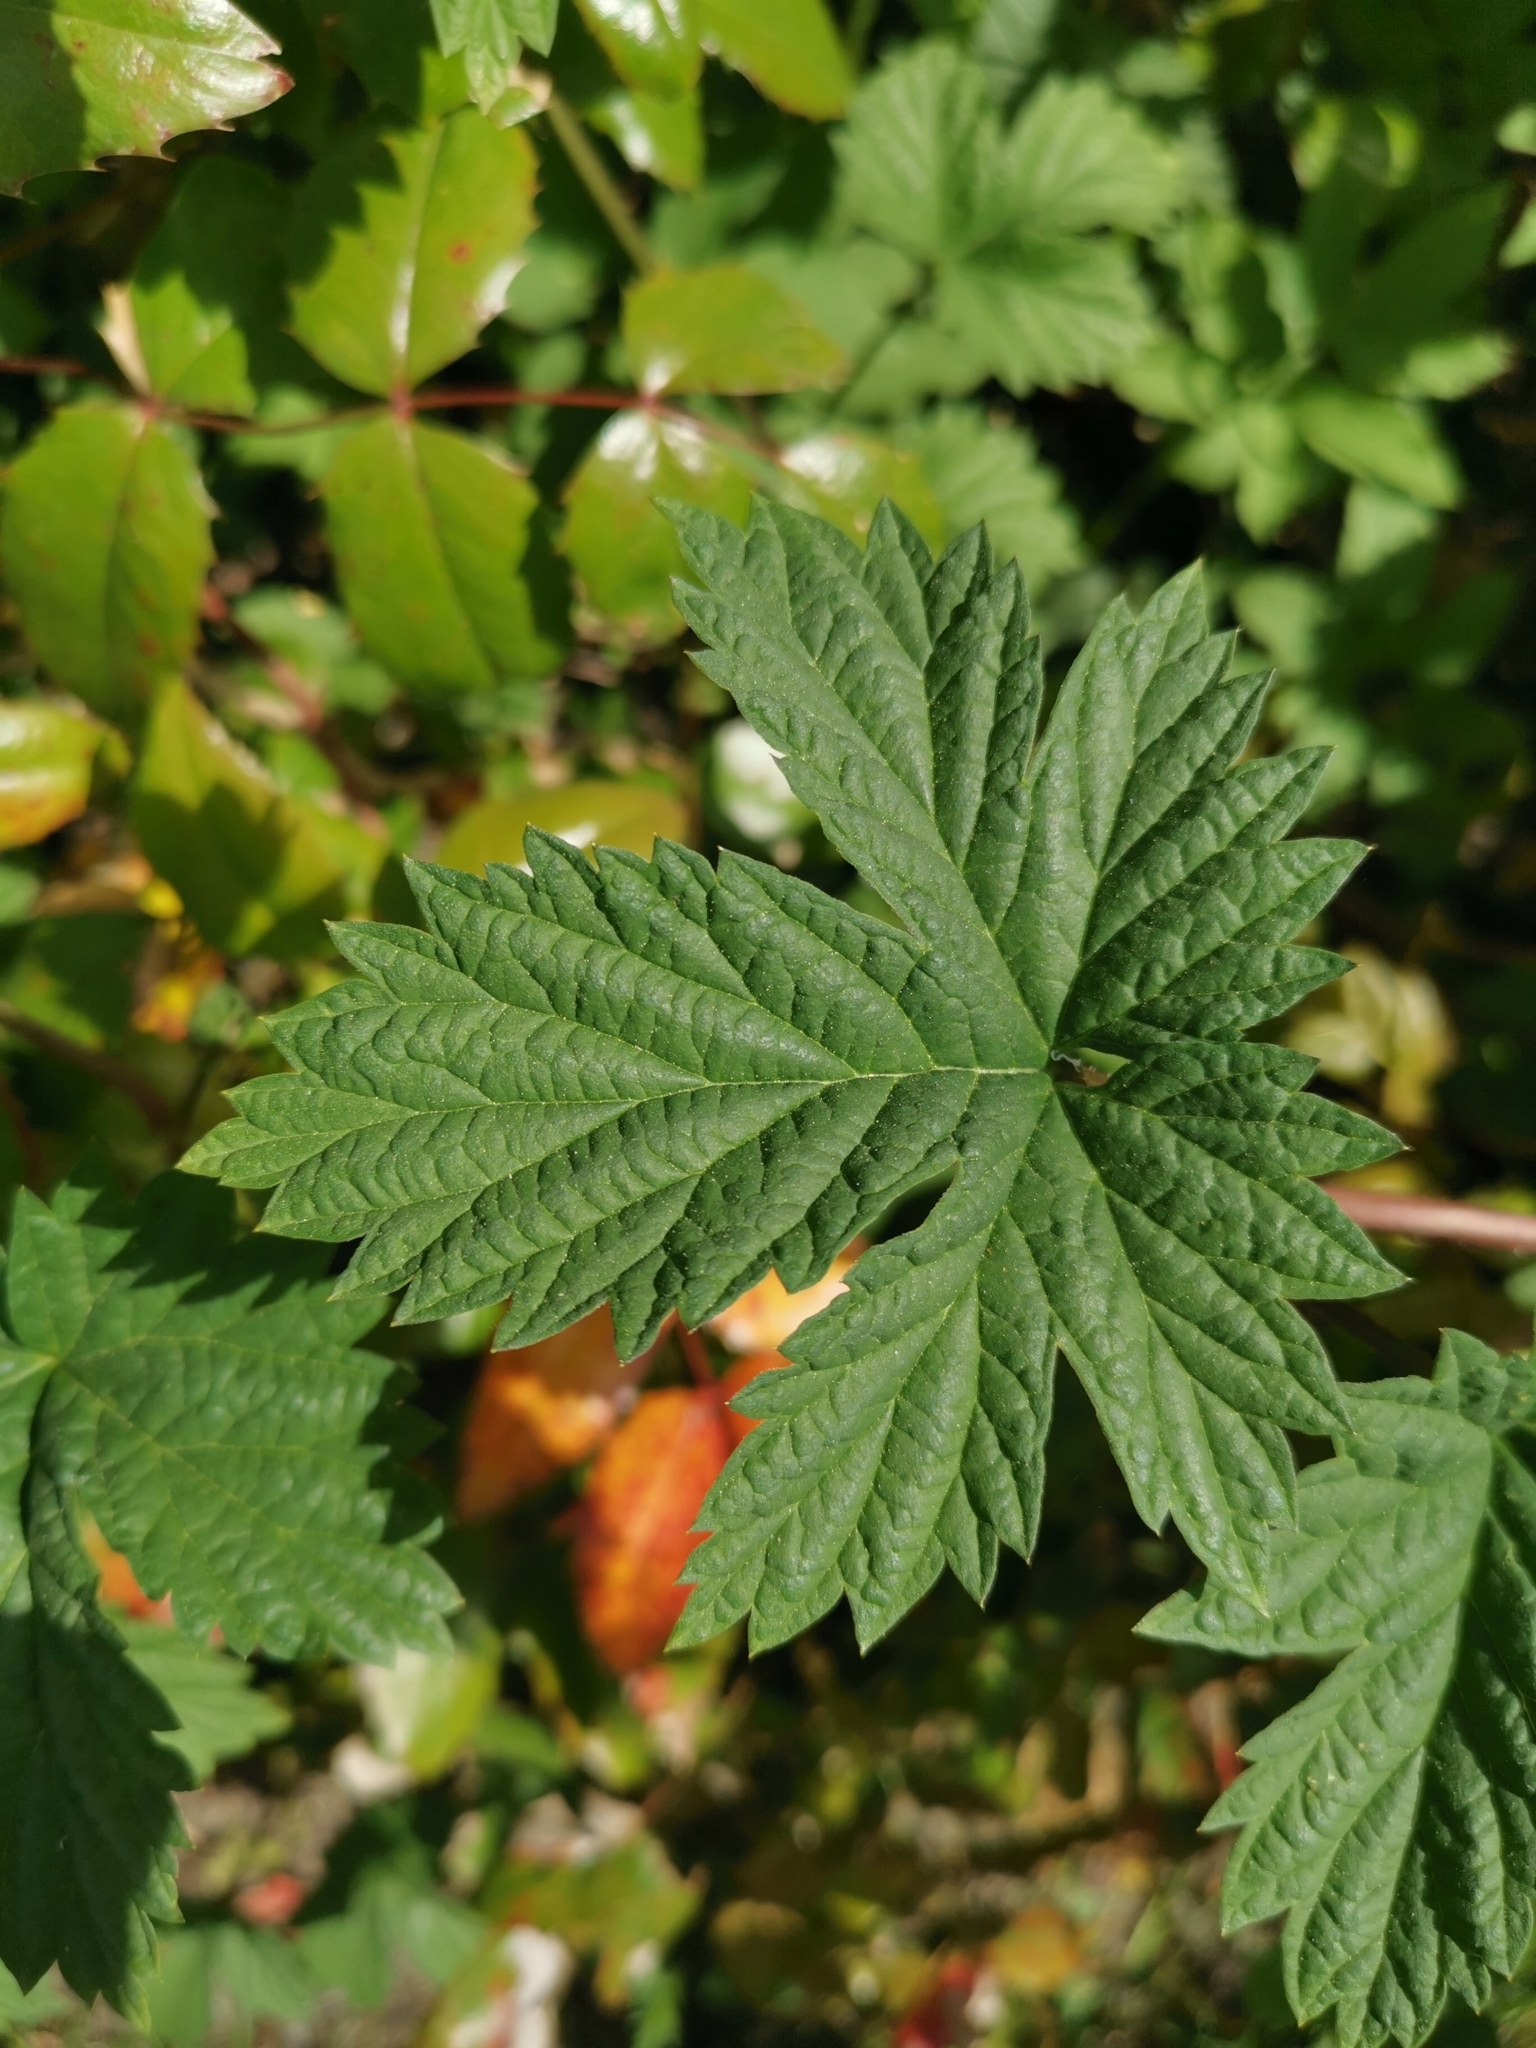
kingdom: Plantae
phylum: Tracheophyta
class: Magnoliopsida
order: Rosales
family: Cannabaceae
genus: Humulus
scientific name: Humulus lupulus
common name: Hop
